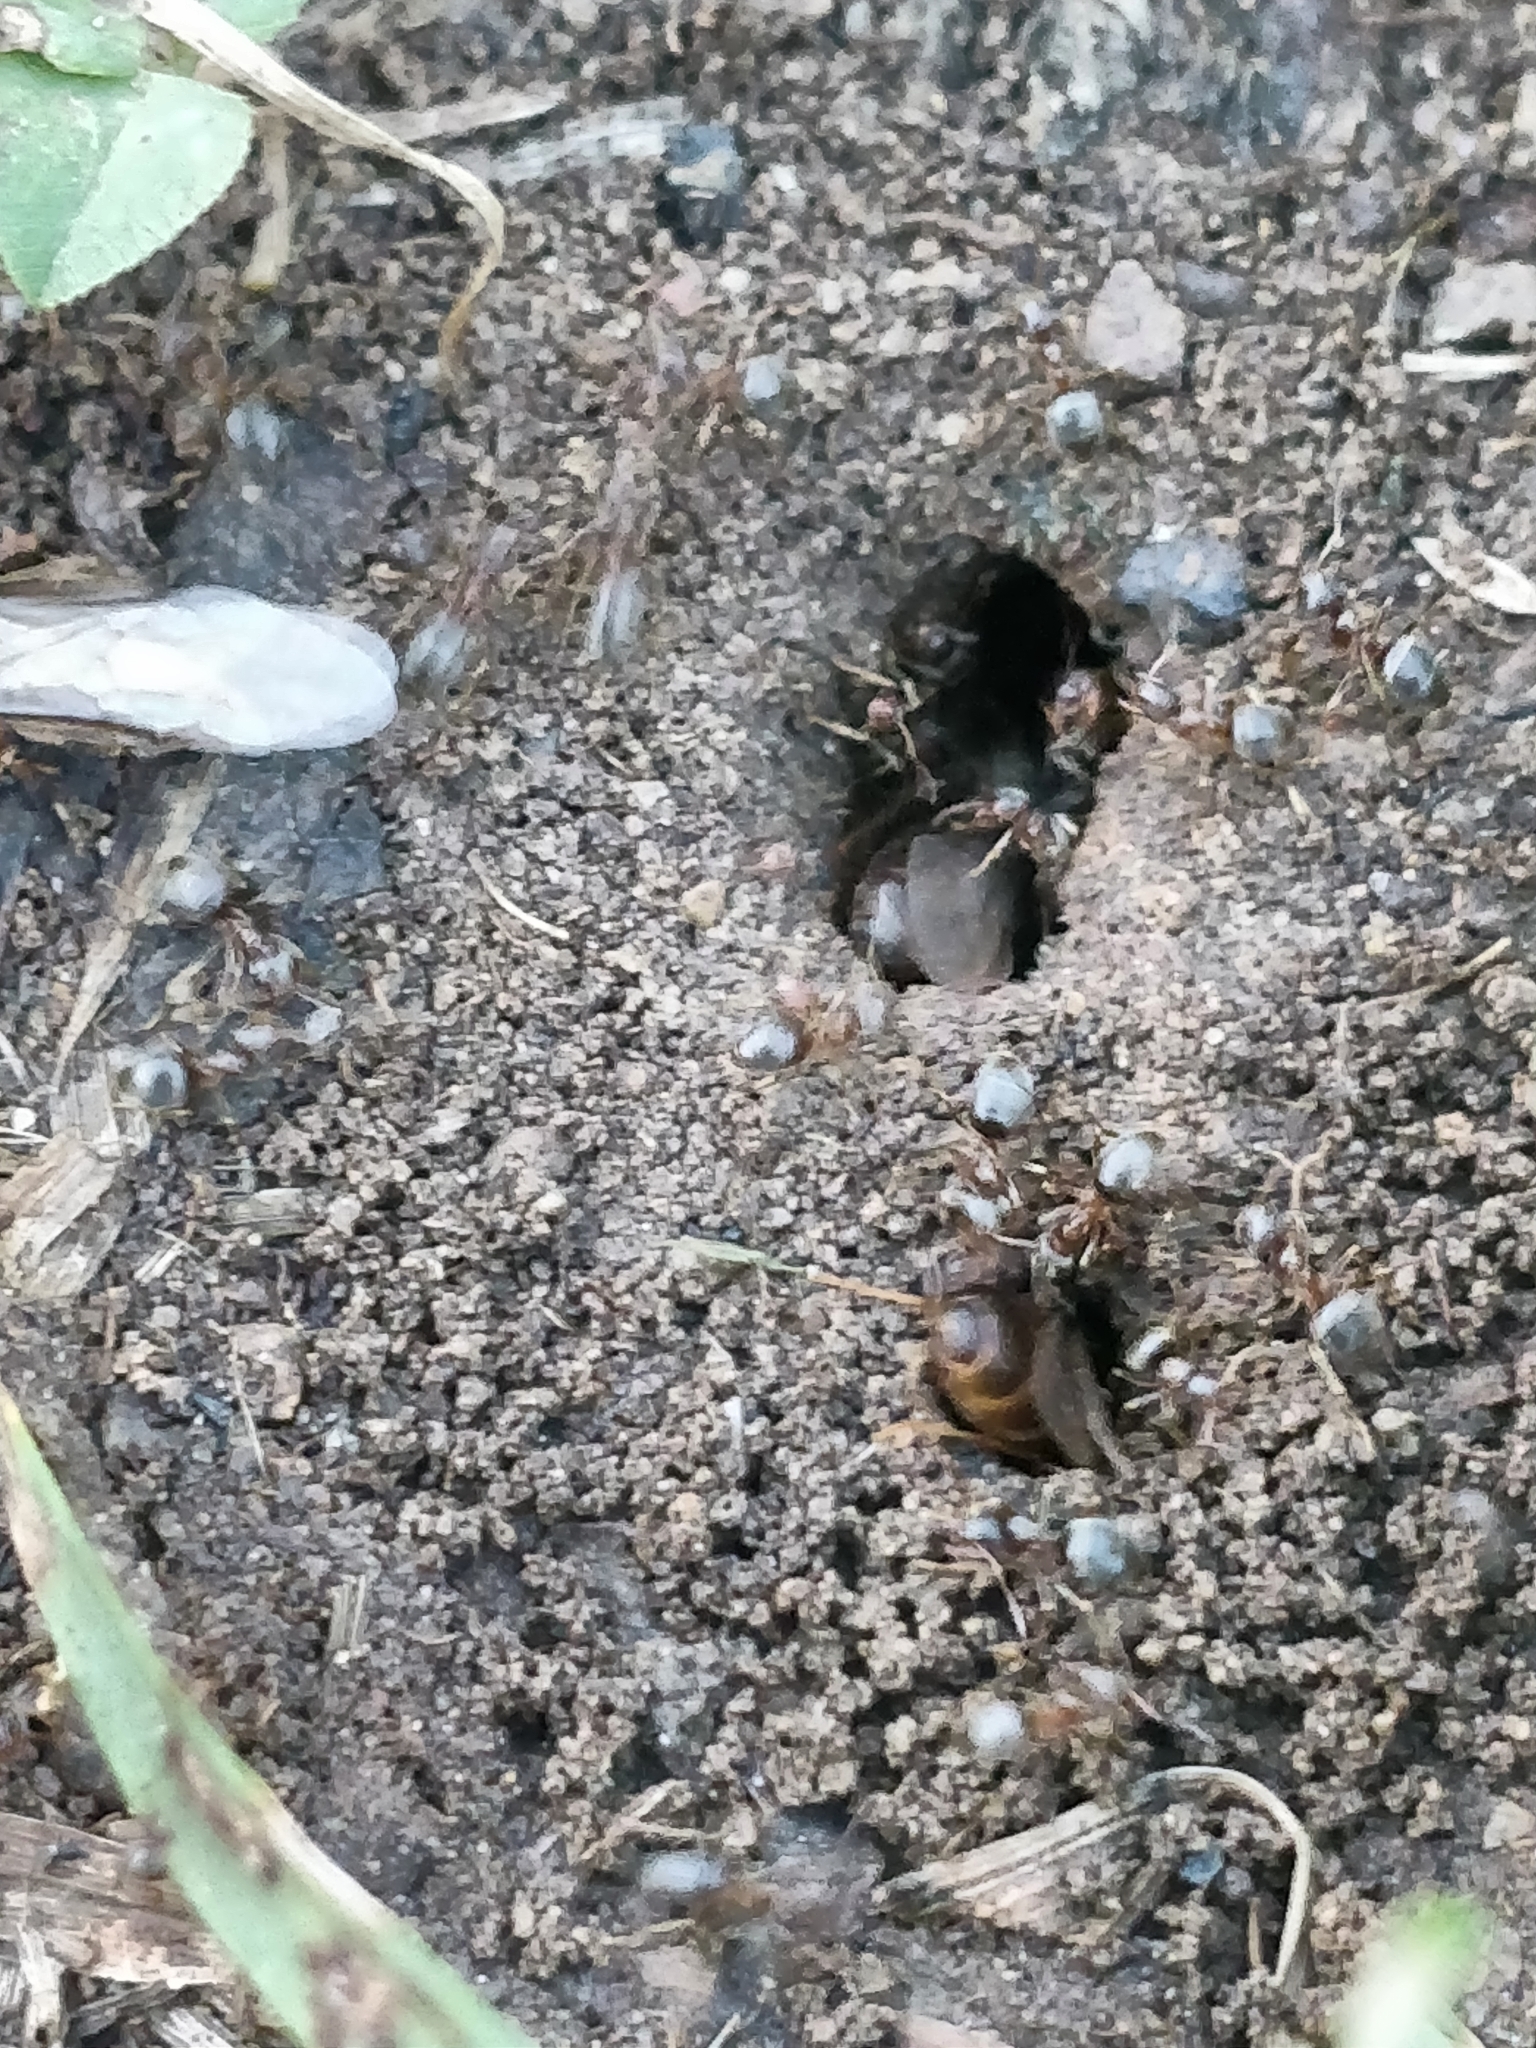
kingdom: Animalia
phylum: Arthropoda
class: Insecta
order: Hymenoptera
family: Formicidae
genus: Lasius
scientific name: Lasius neoniger
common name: Turfgrass ant
